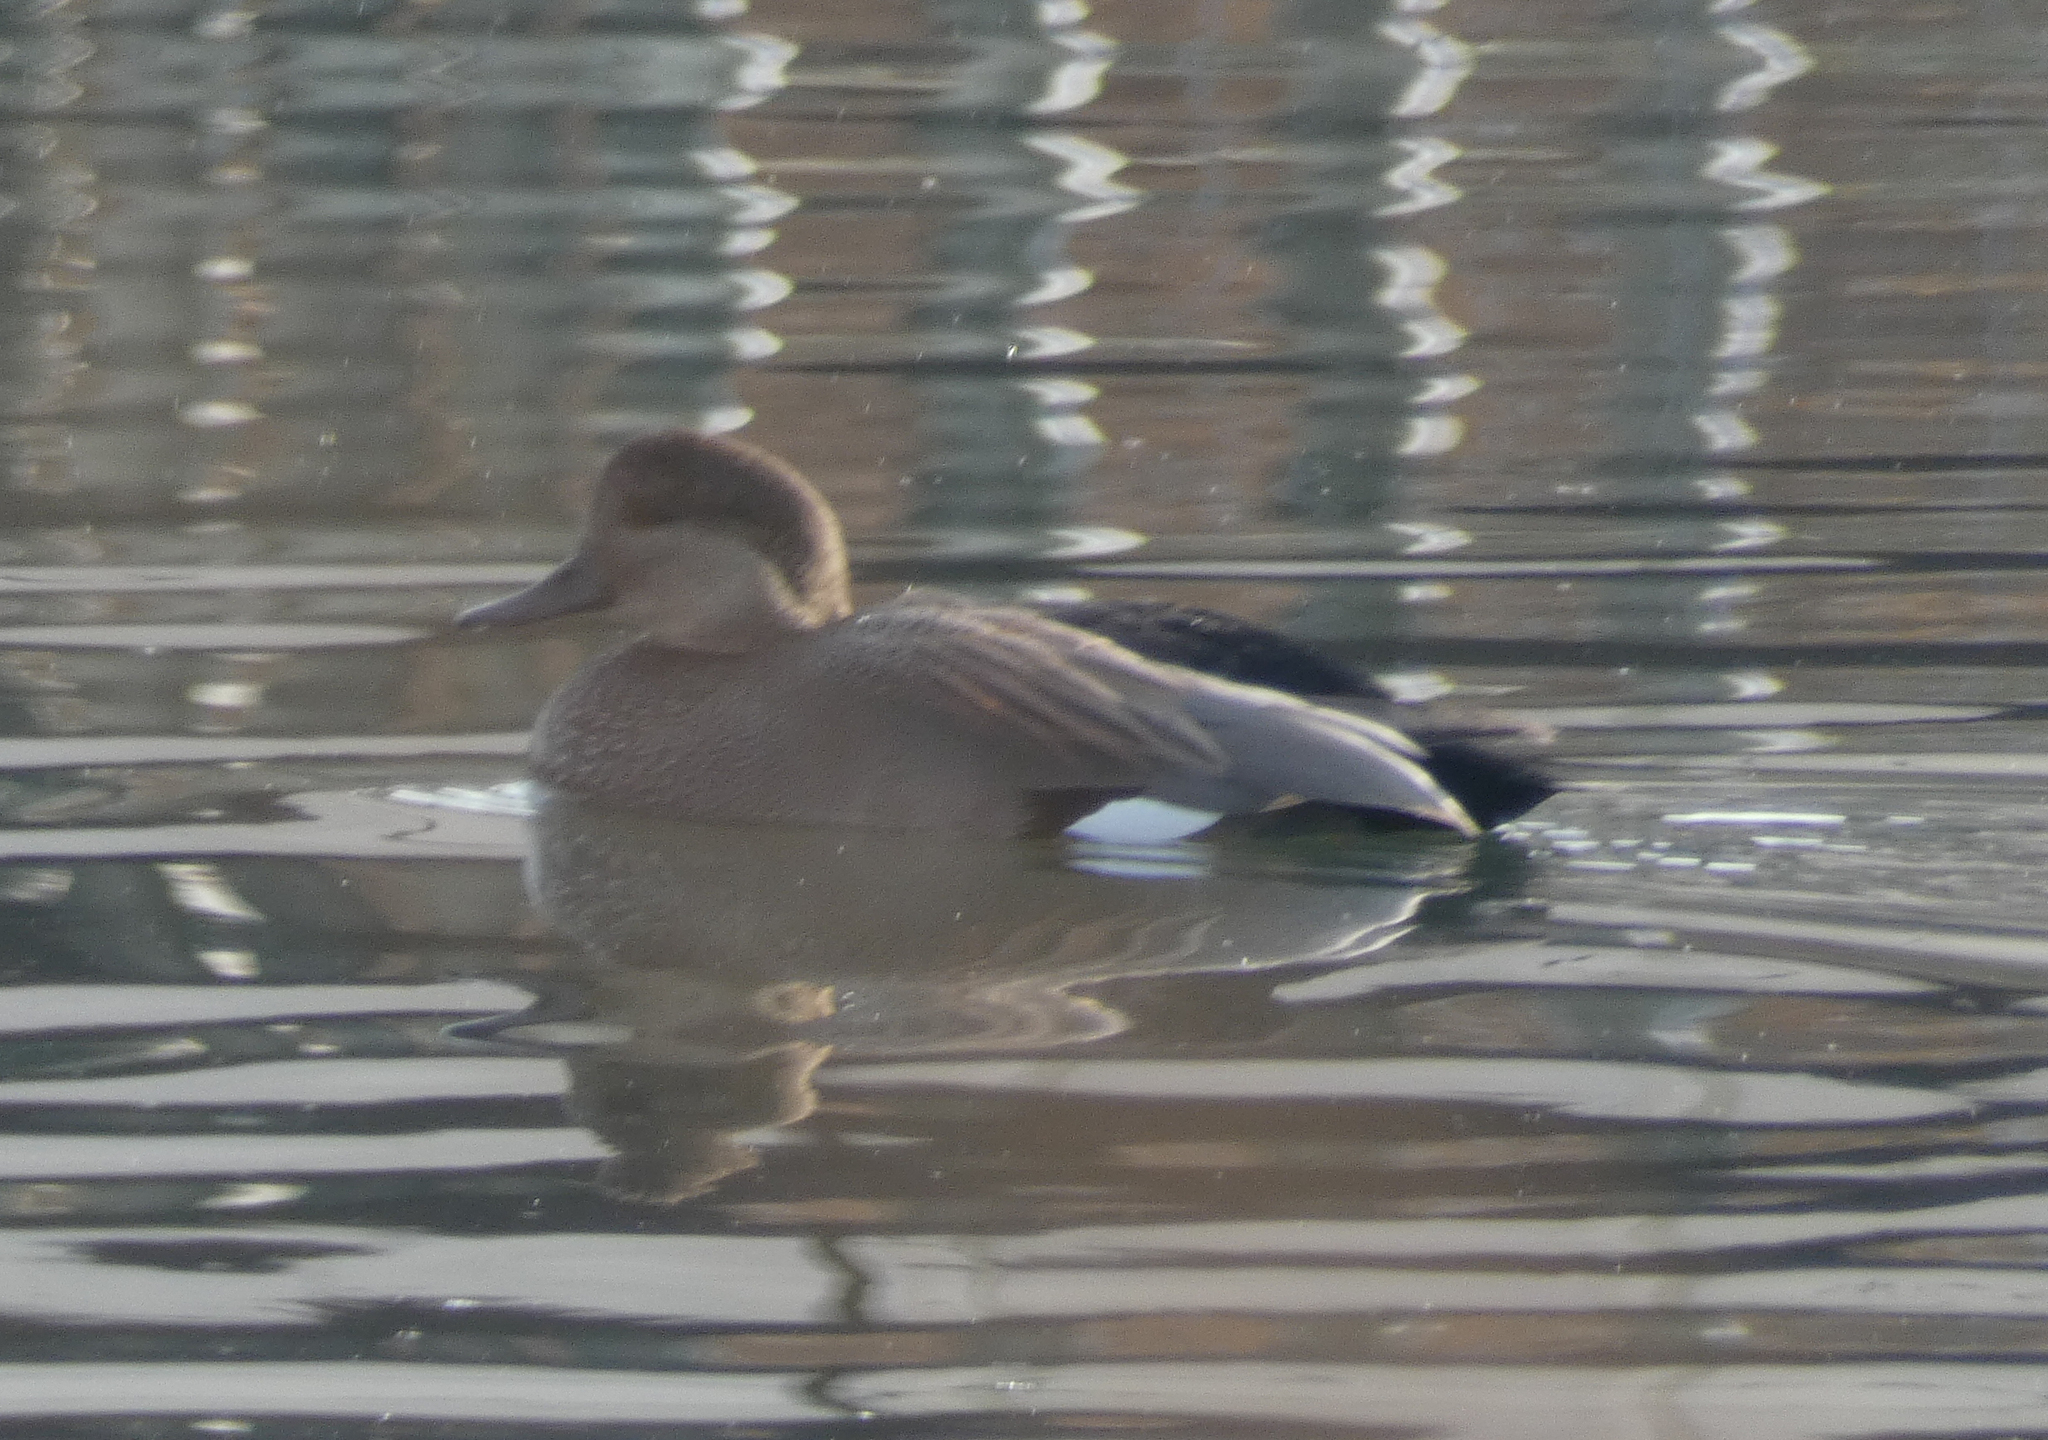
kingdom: Animalia
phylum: Chordata
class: Aves
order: Anseriformes
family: Anatidae
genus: Mareca
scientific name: Mareca strepera
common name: Gadwall
